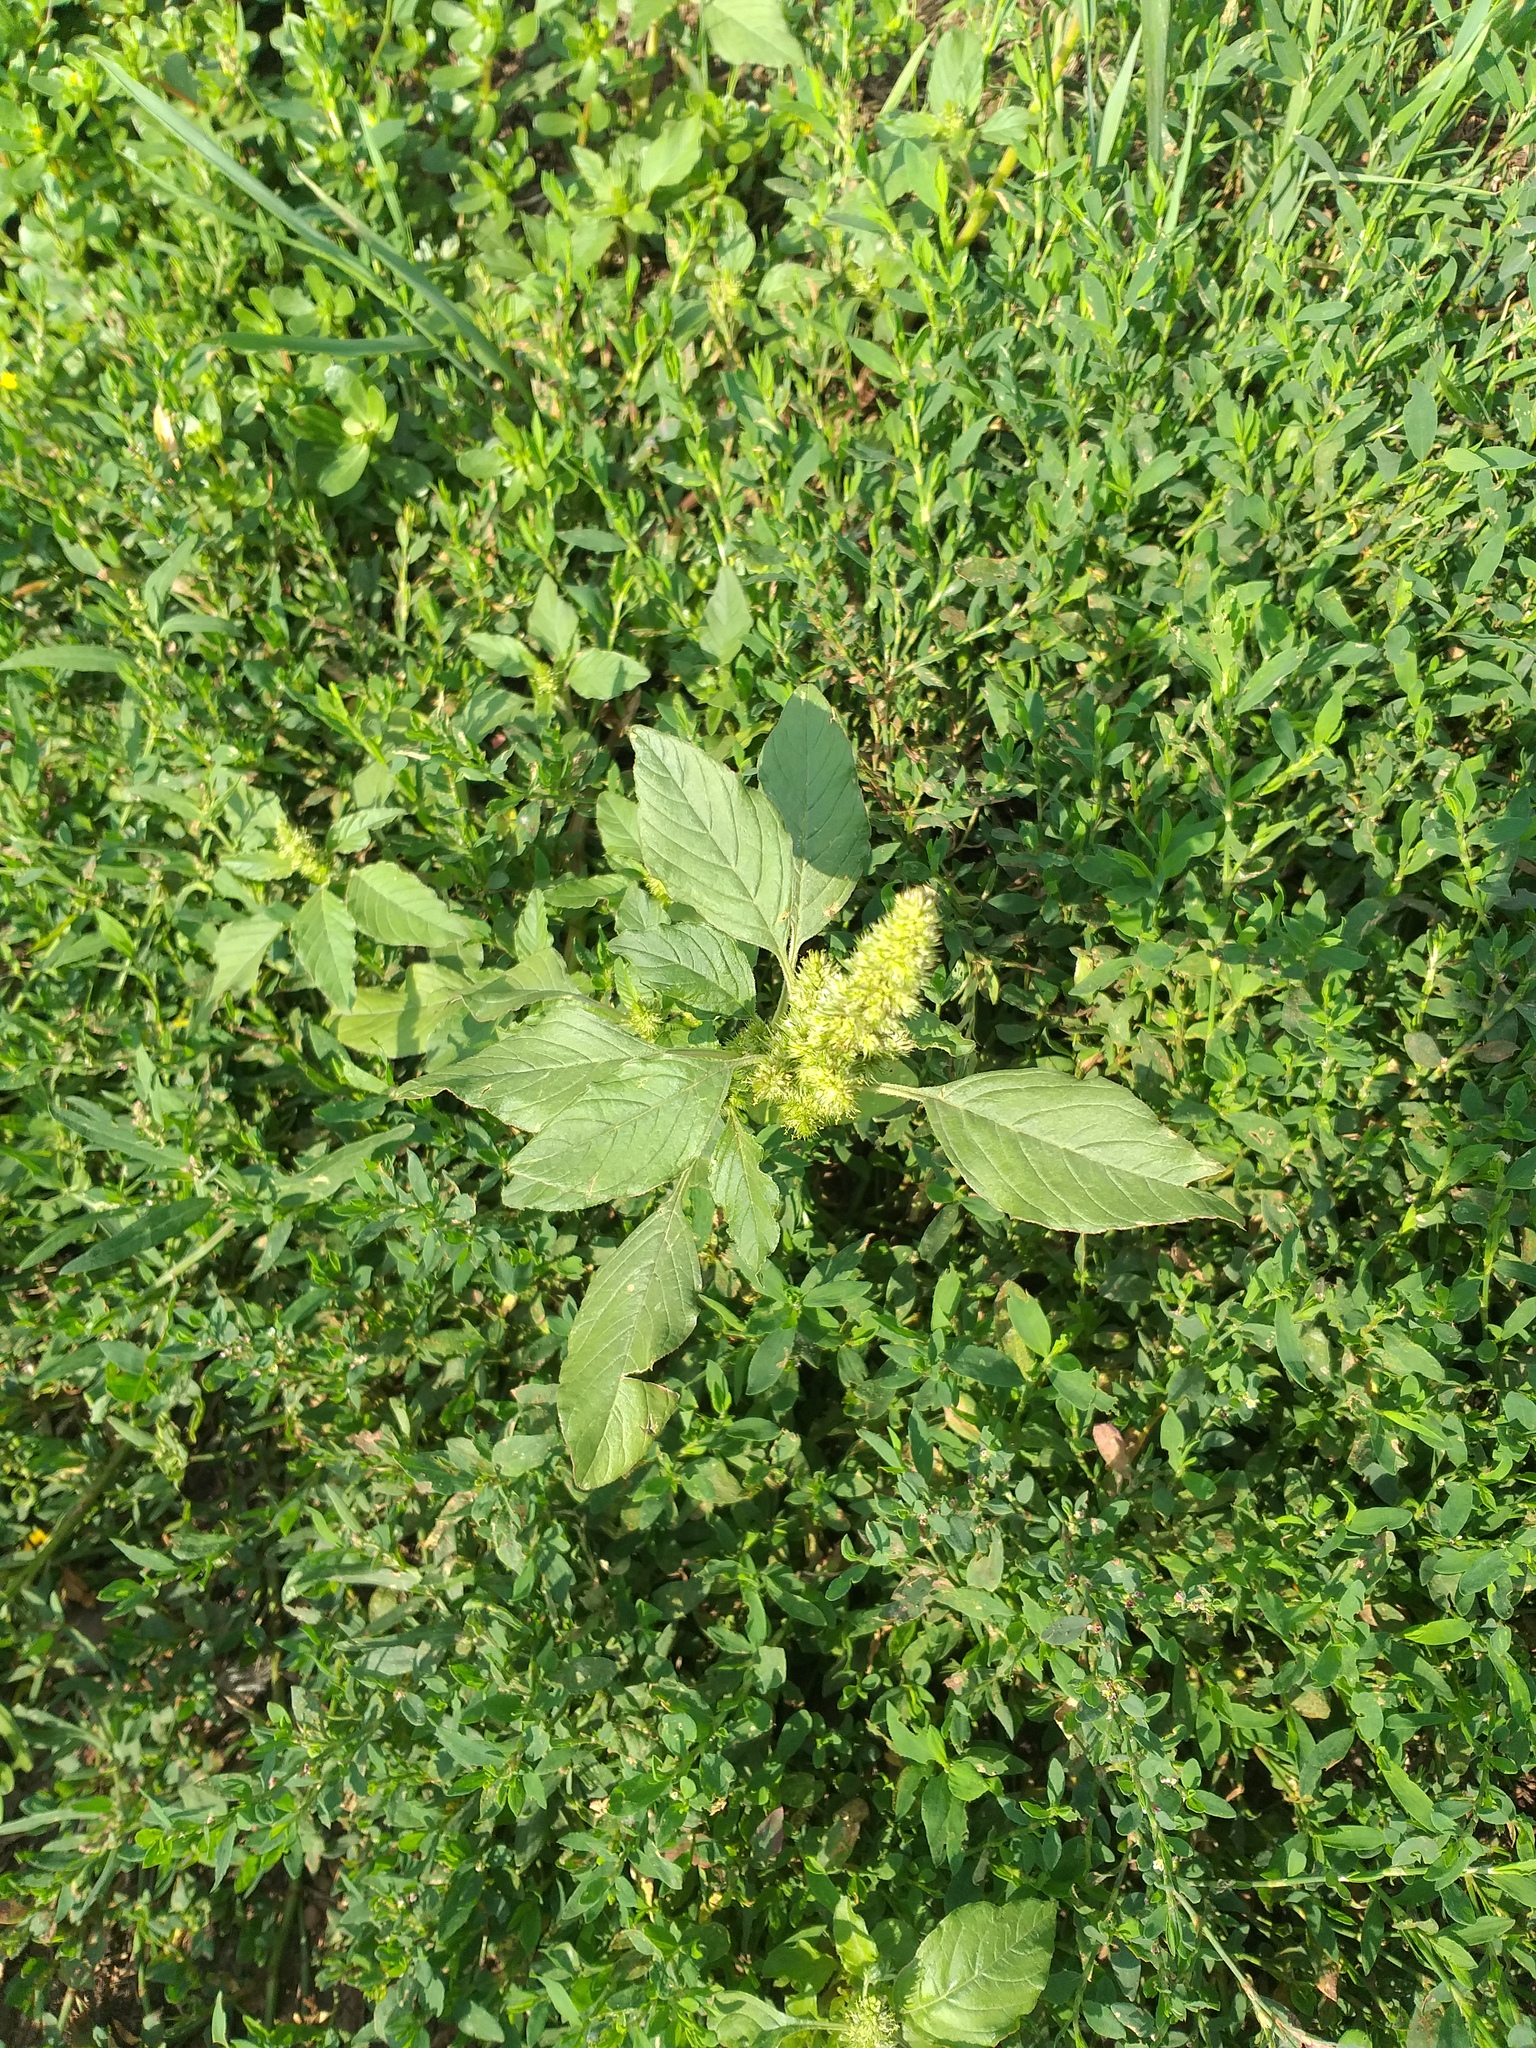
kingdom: Plantae
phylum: Tracheophyta
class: Magnoliopsida
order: Caryophyllales
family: Amaranthaceae
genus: Amaranthus
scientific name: Amaranthus retroflexus
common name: Redroot amaranth
